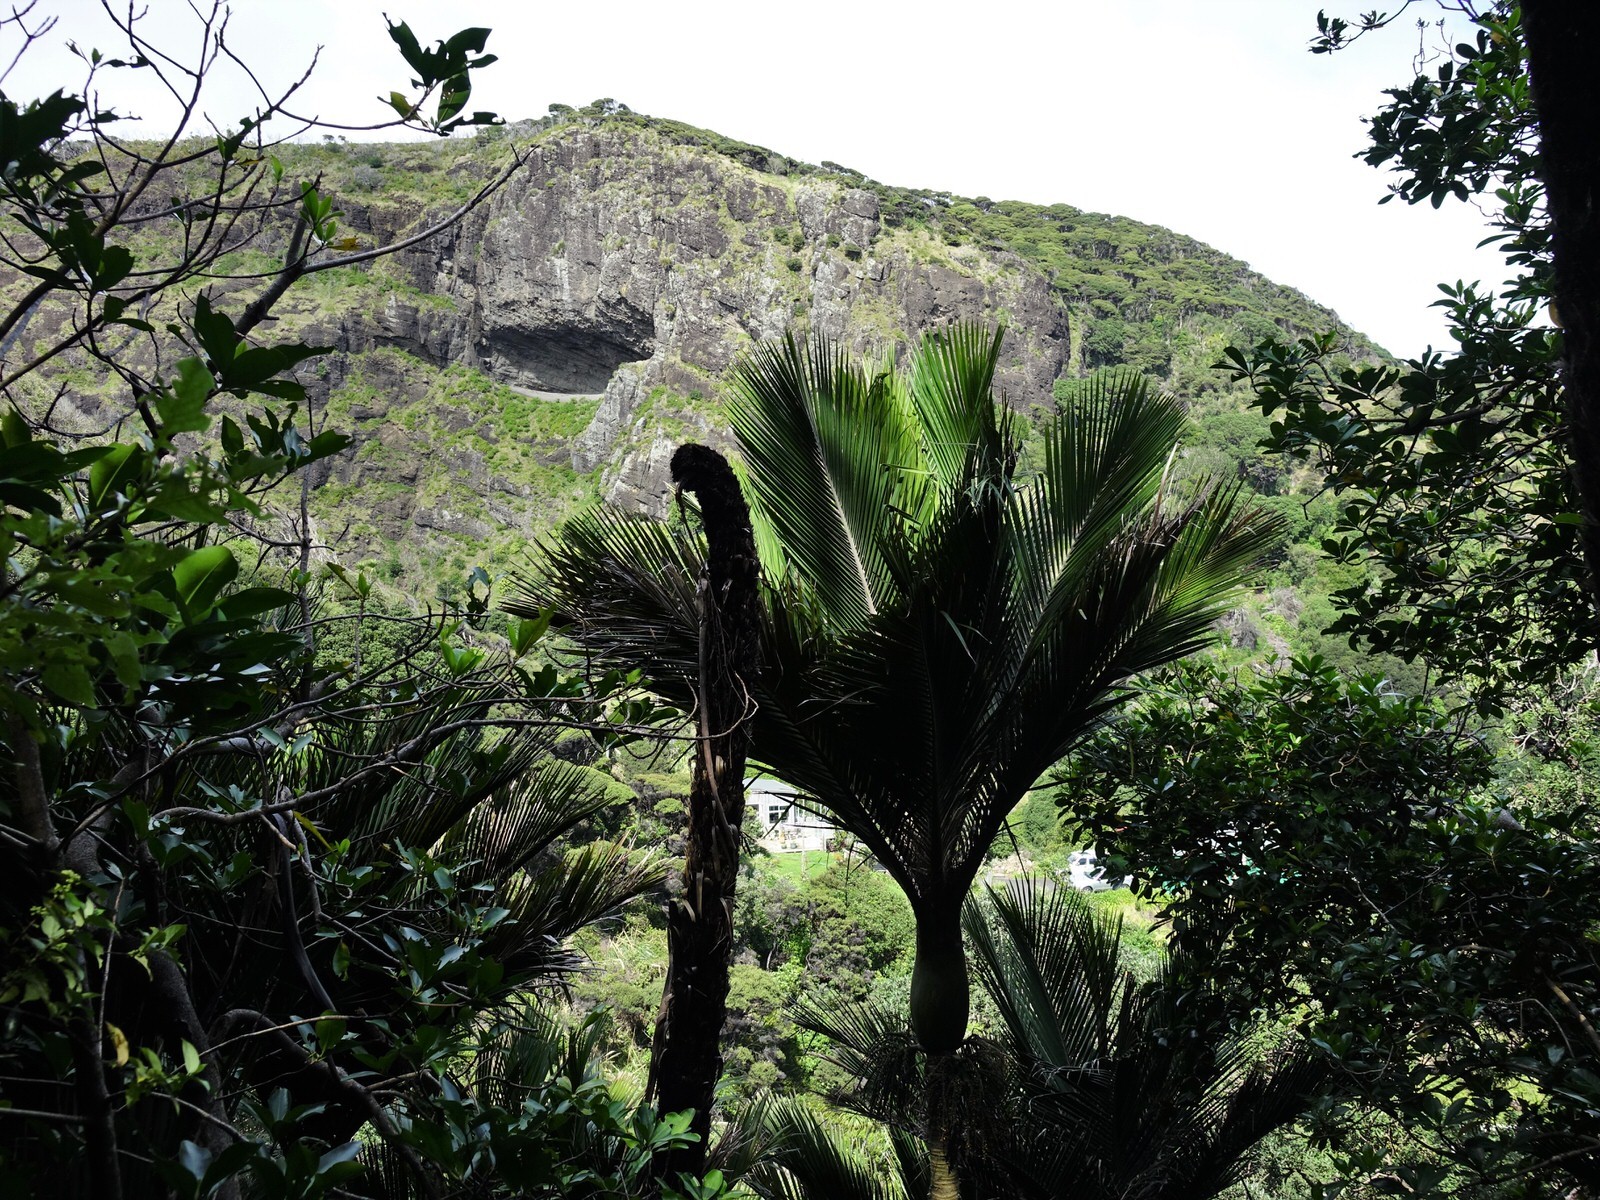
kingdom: Plantae
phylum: Tracheophyta
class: Liliopsida
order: Arecales
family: Arecaceae
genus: Rhopalostylis
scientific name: Rhopalostylis sapida
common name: Feather-duster palm
